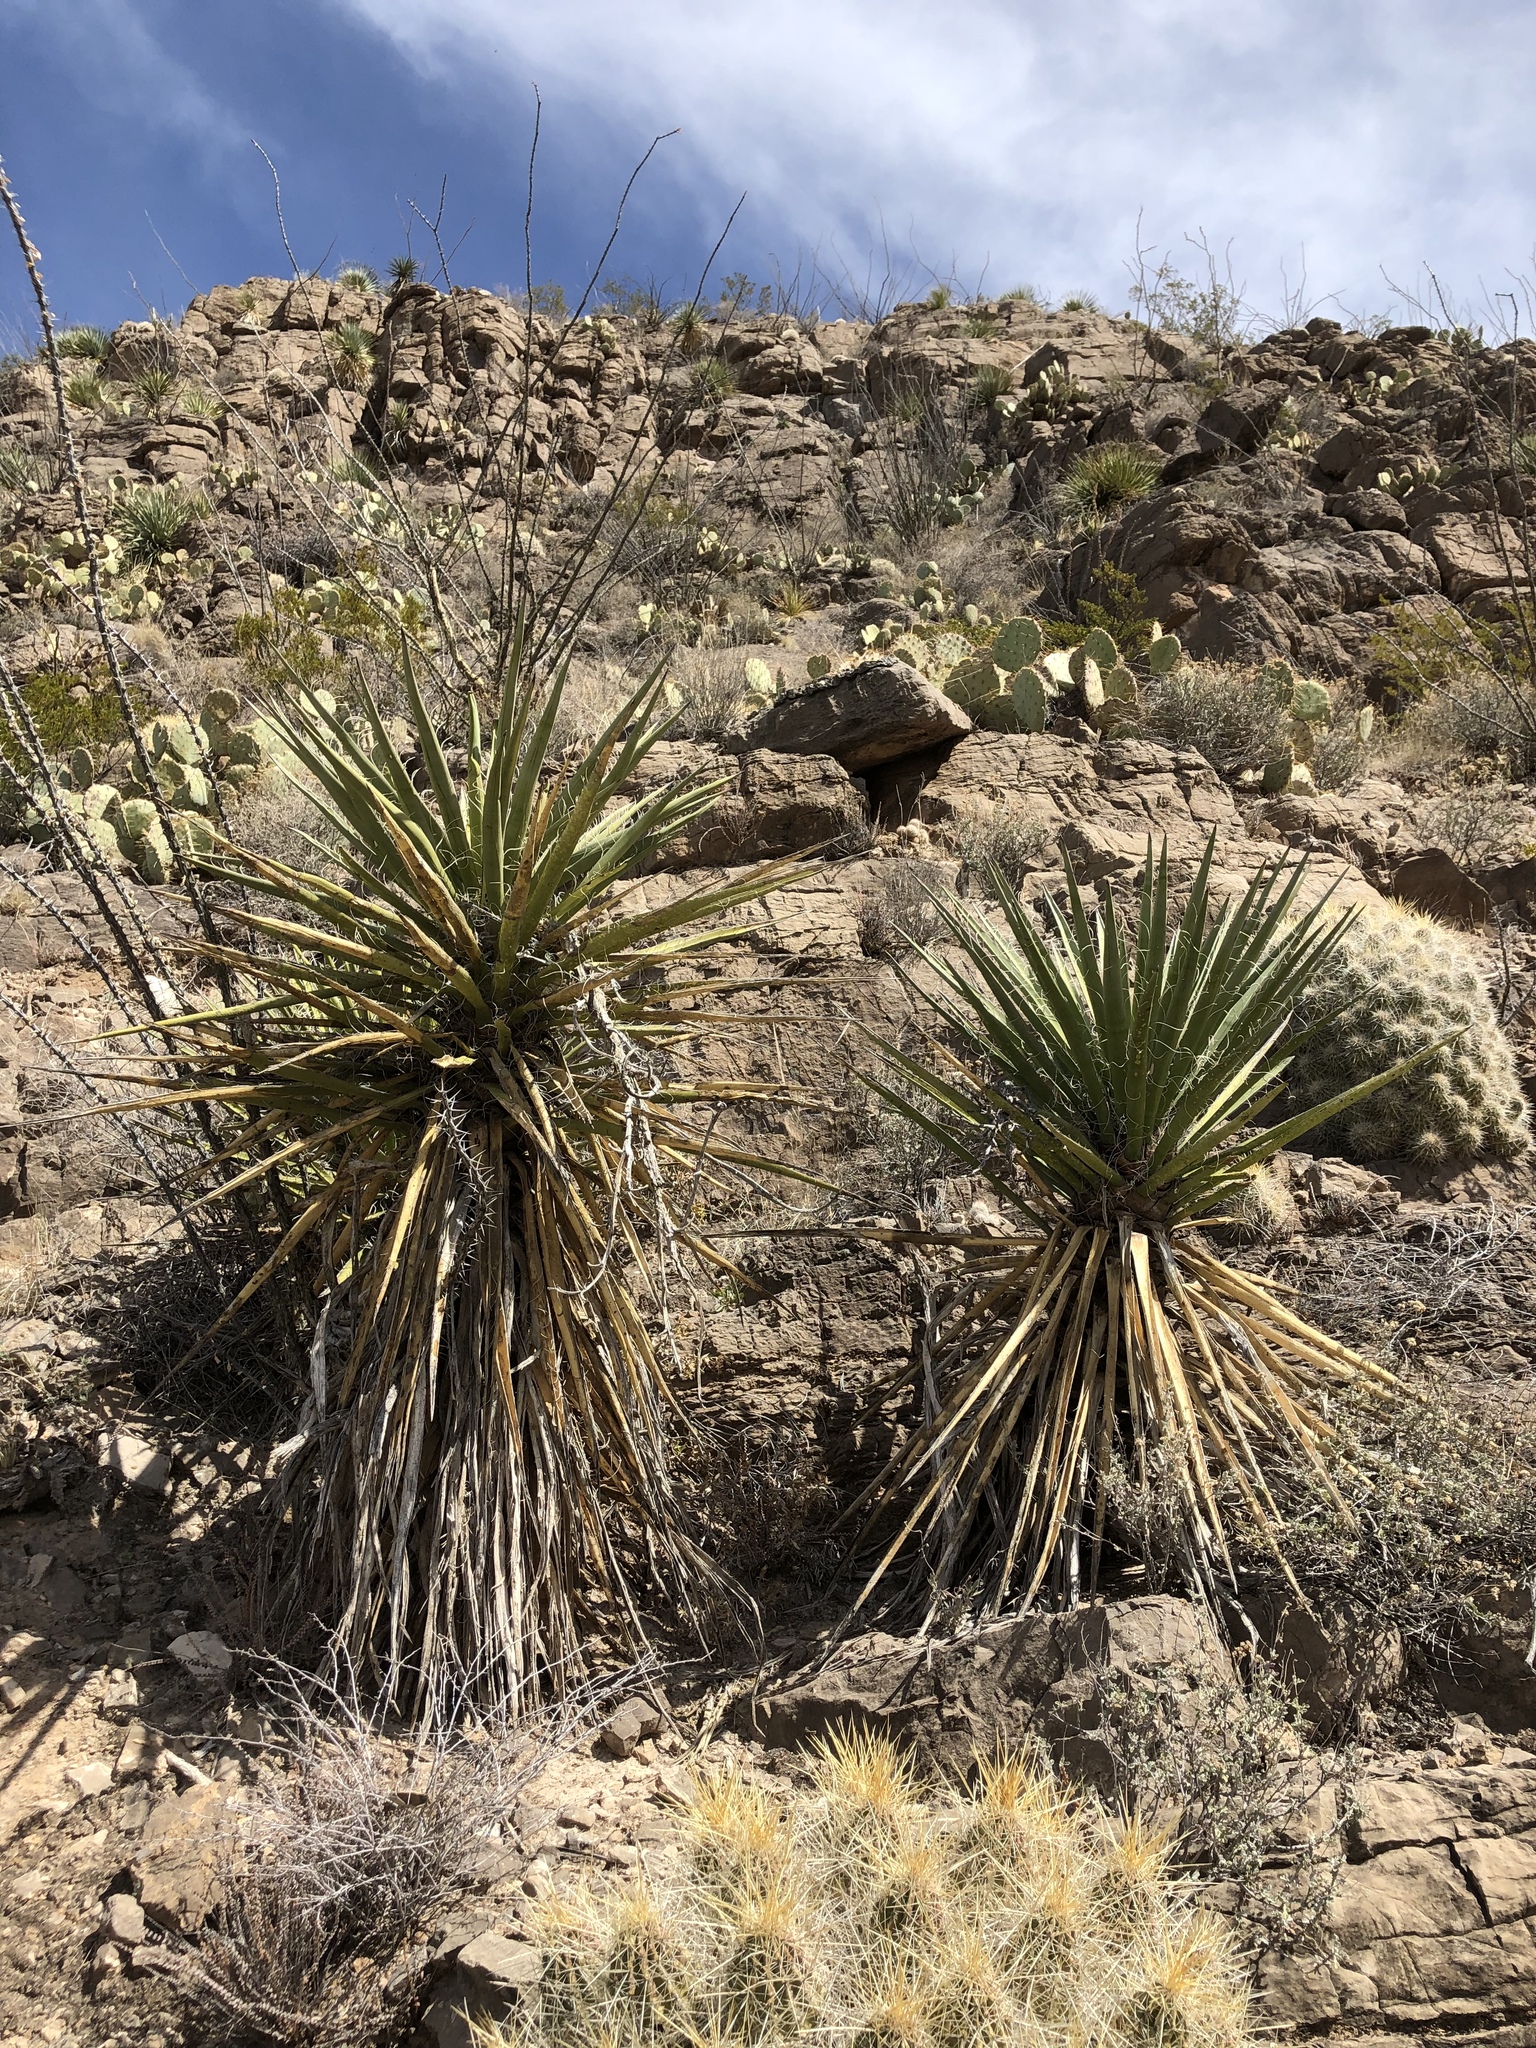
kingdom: Plantae
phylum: Tracheophyta
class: Liliopsida
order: Asparagales
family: Asparagaceae
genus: Yucca
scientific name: Yucca treculiana
